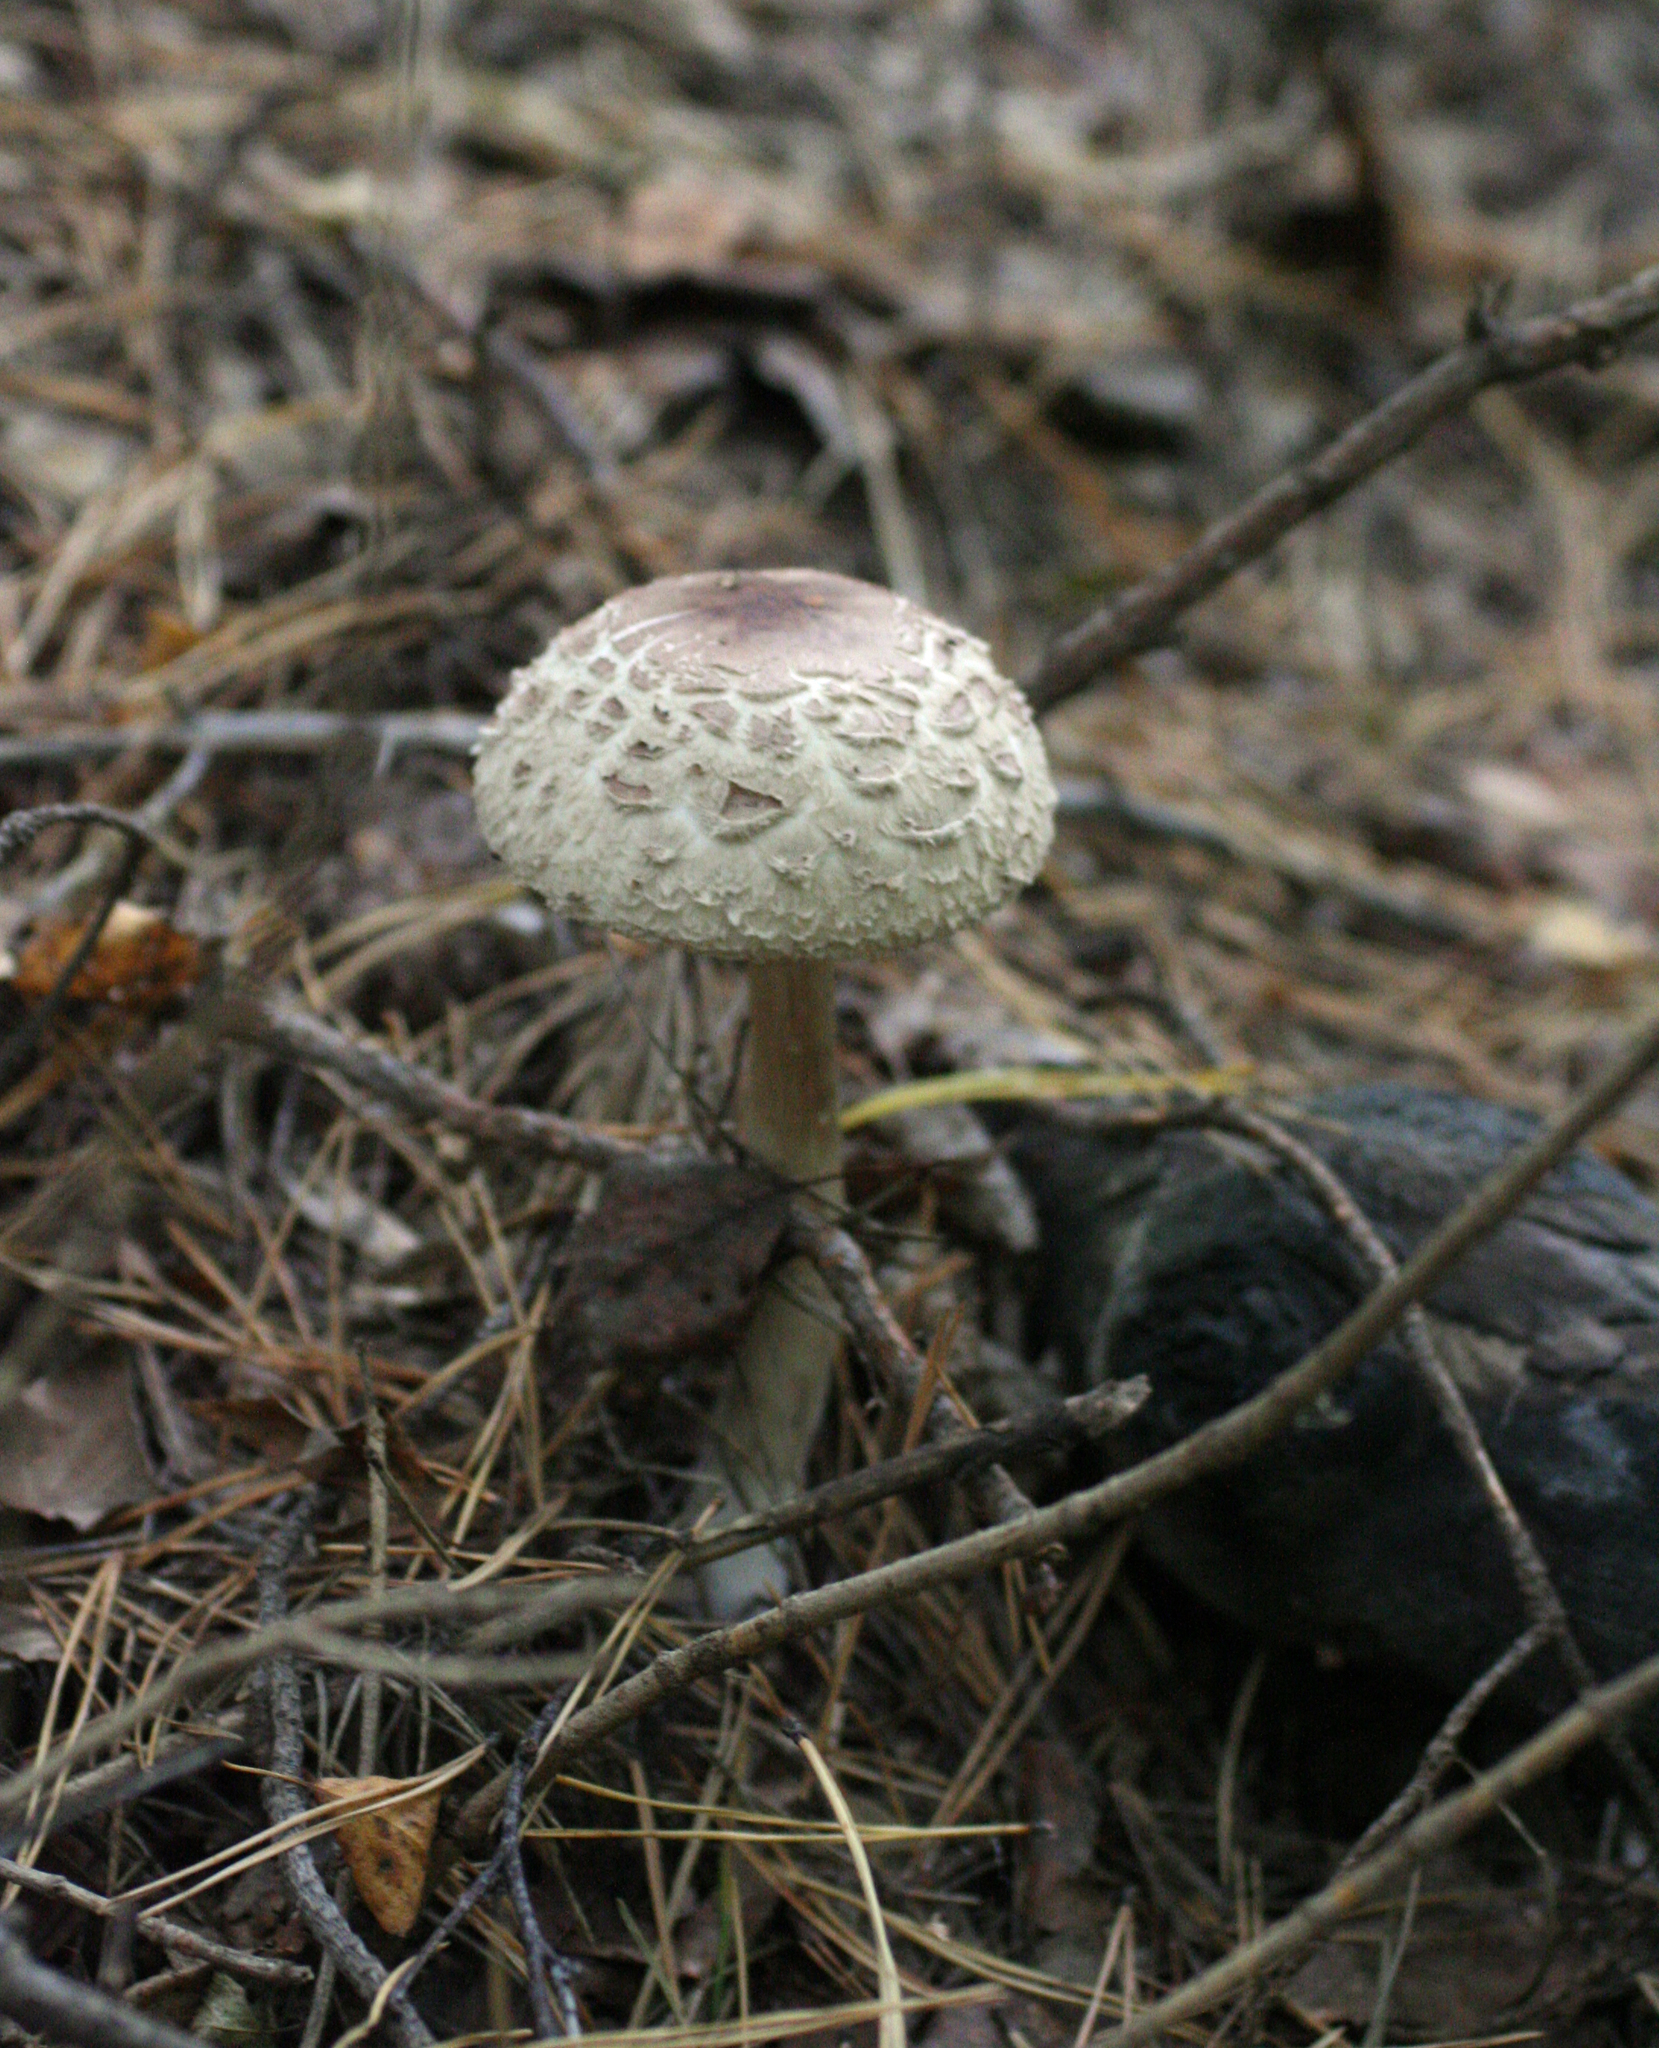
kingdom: Fungi
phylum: Basidiomycota
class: Agaricomycetes
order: Agaricales
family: Agaricaceae
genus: Chlorophyllum
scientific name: Chlorophyllum olivieri
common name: Conifer parasol
